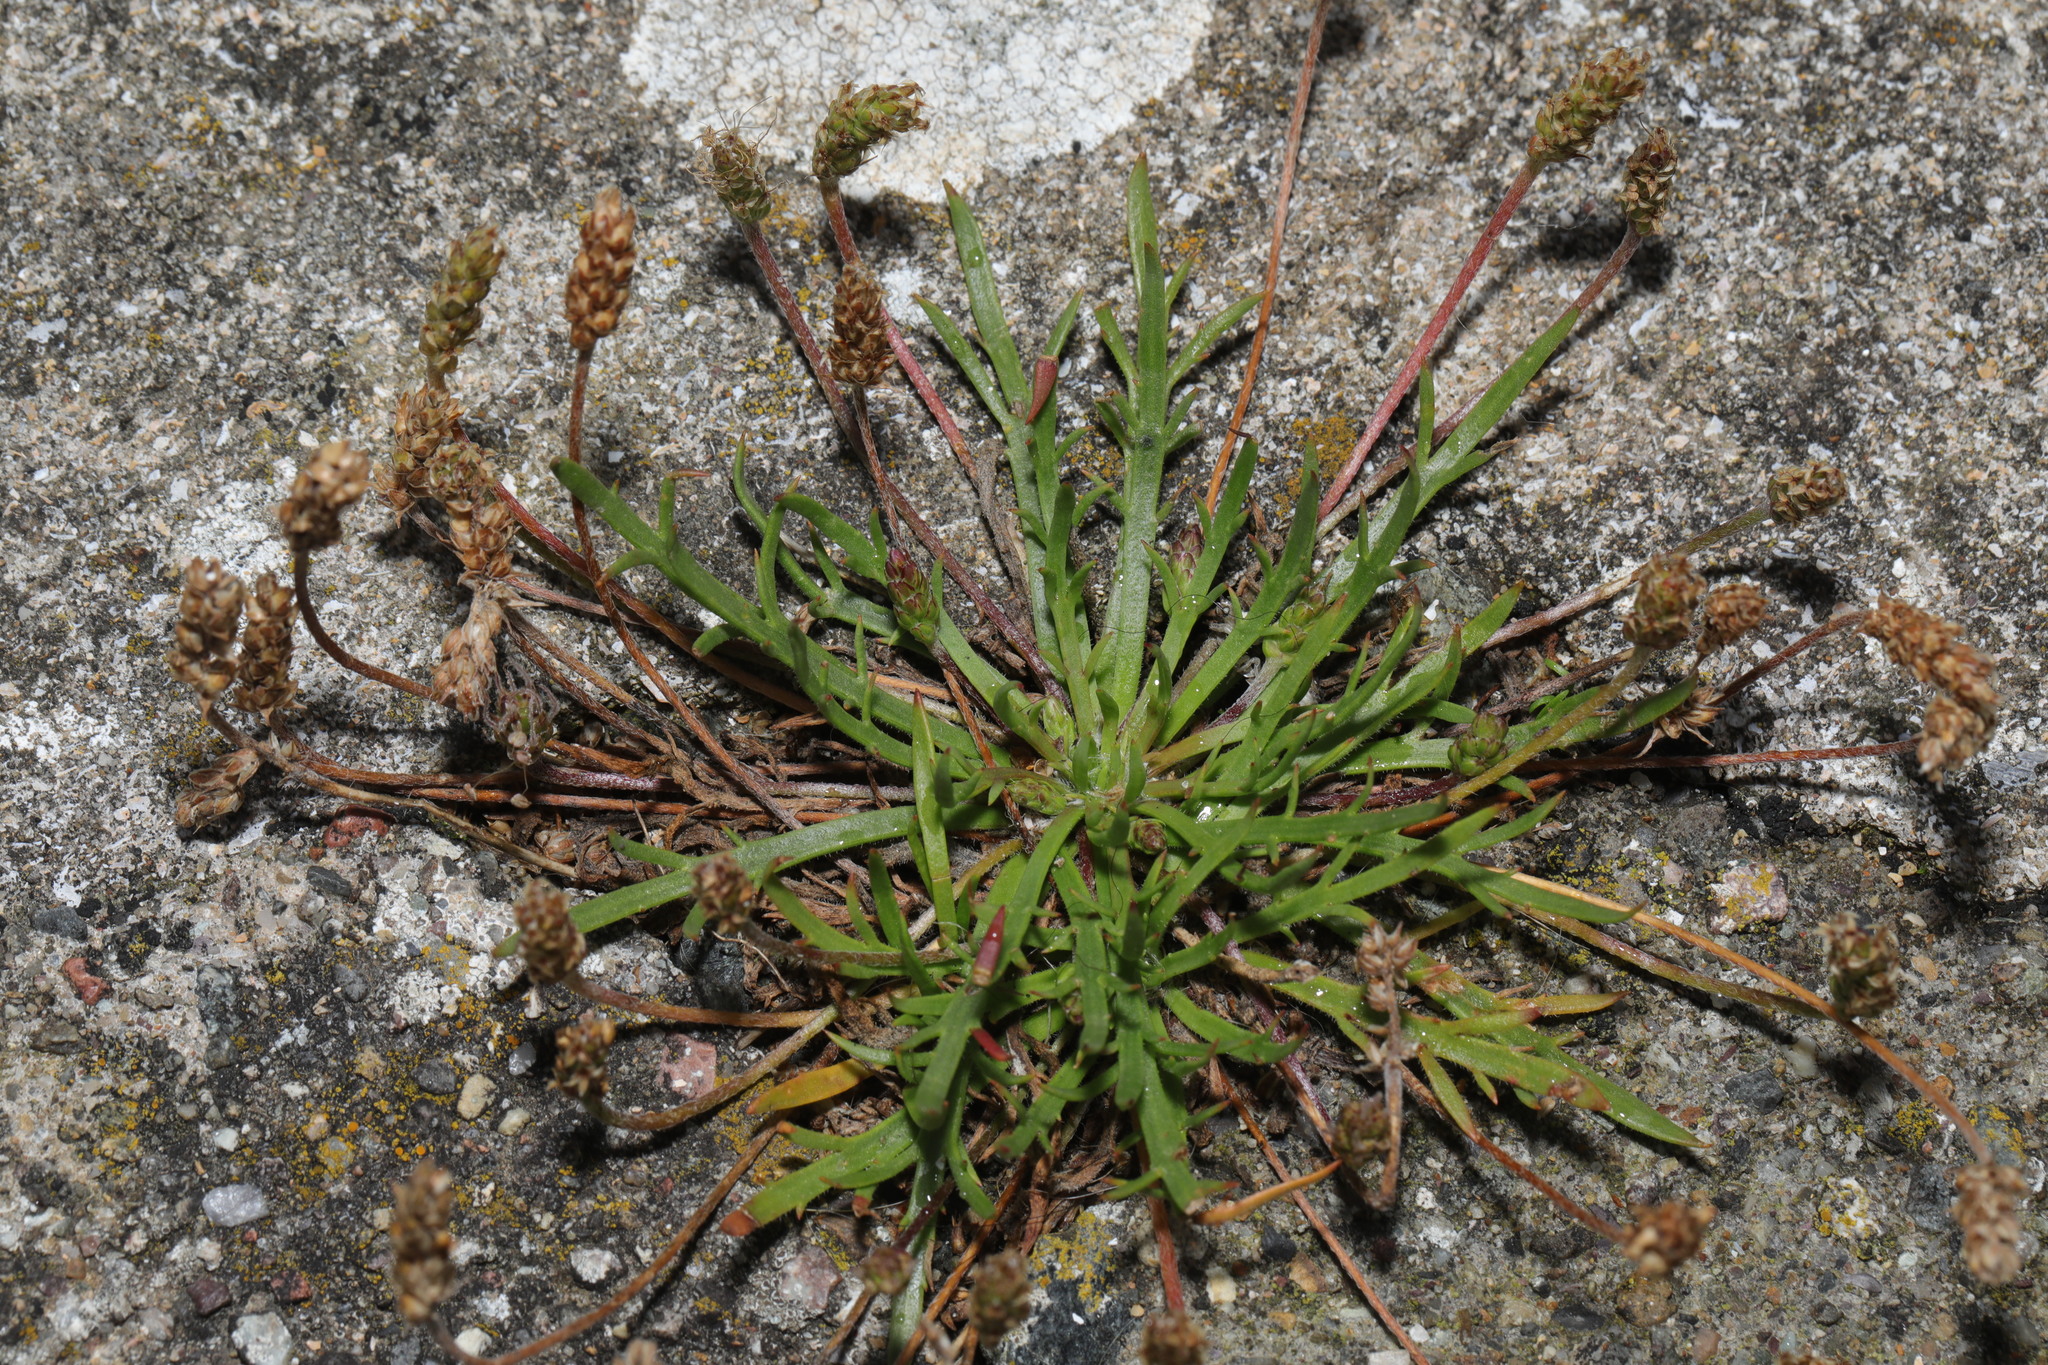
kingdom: Plantae
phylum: Tracheophyta
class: Magnoliopsida
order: Lamiales
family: Plantaginaceae
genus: Plantago
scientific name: Plantago coronopus
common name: Buck's-horn plantain
